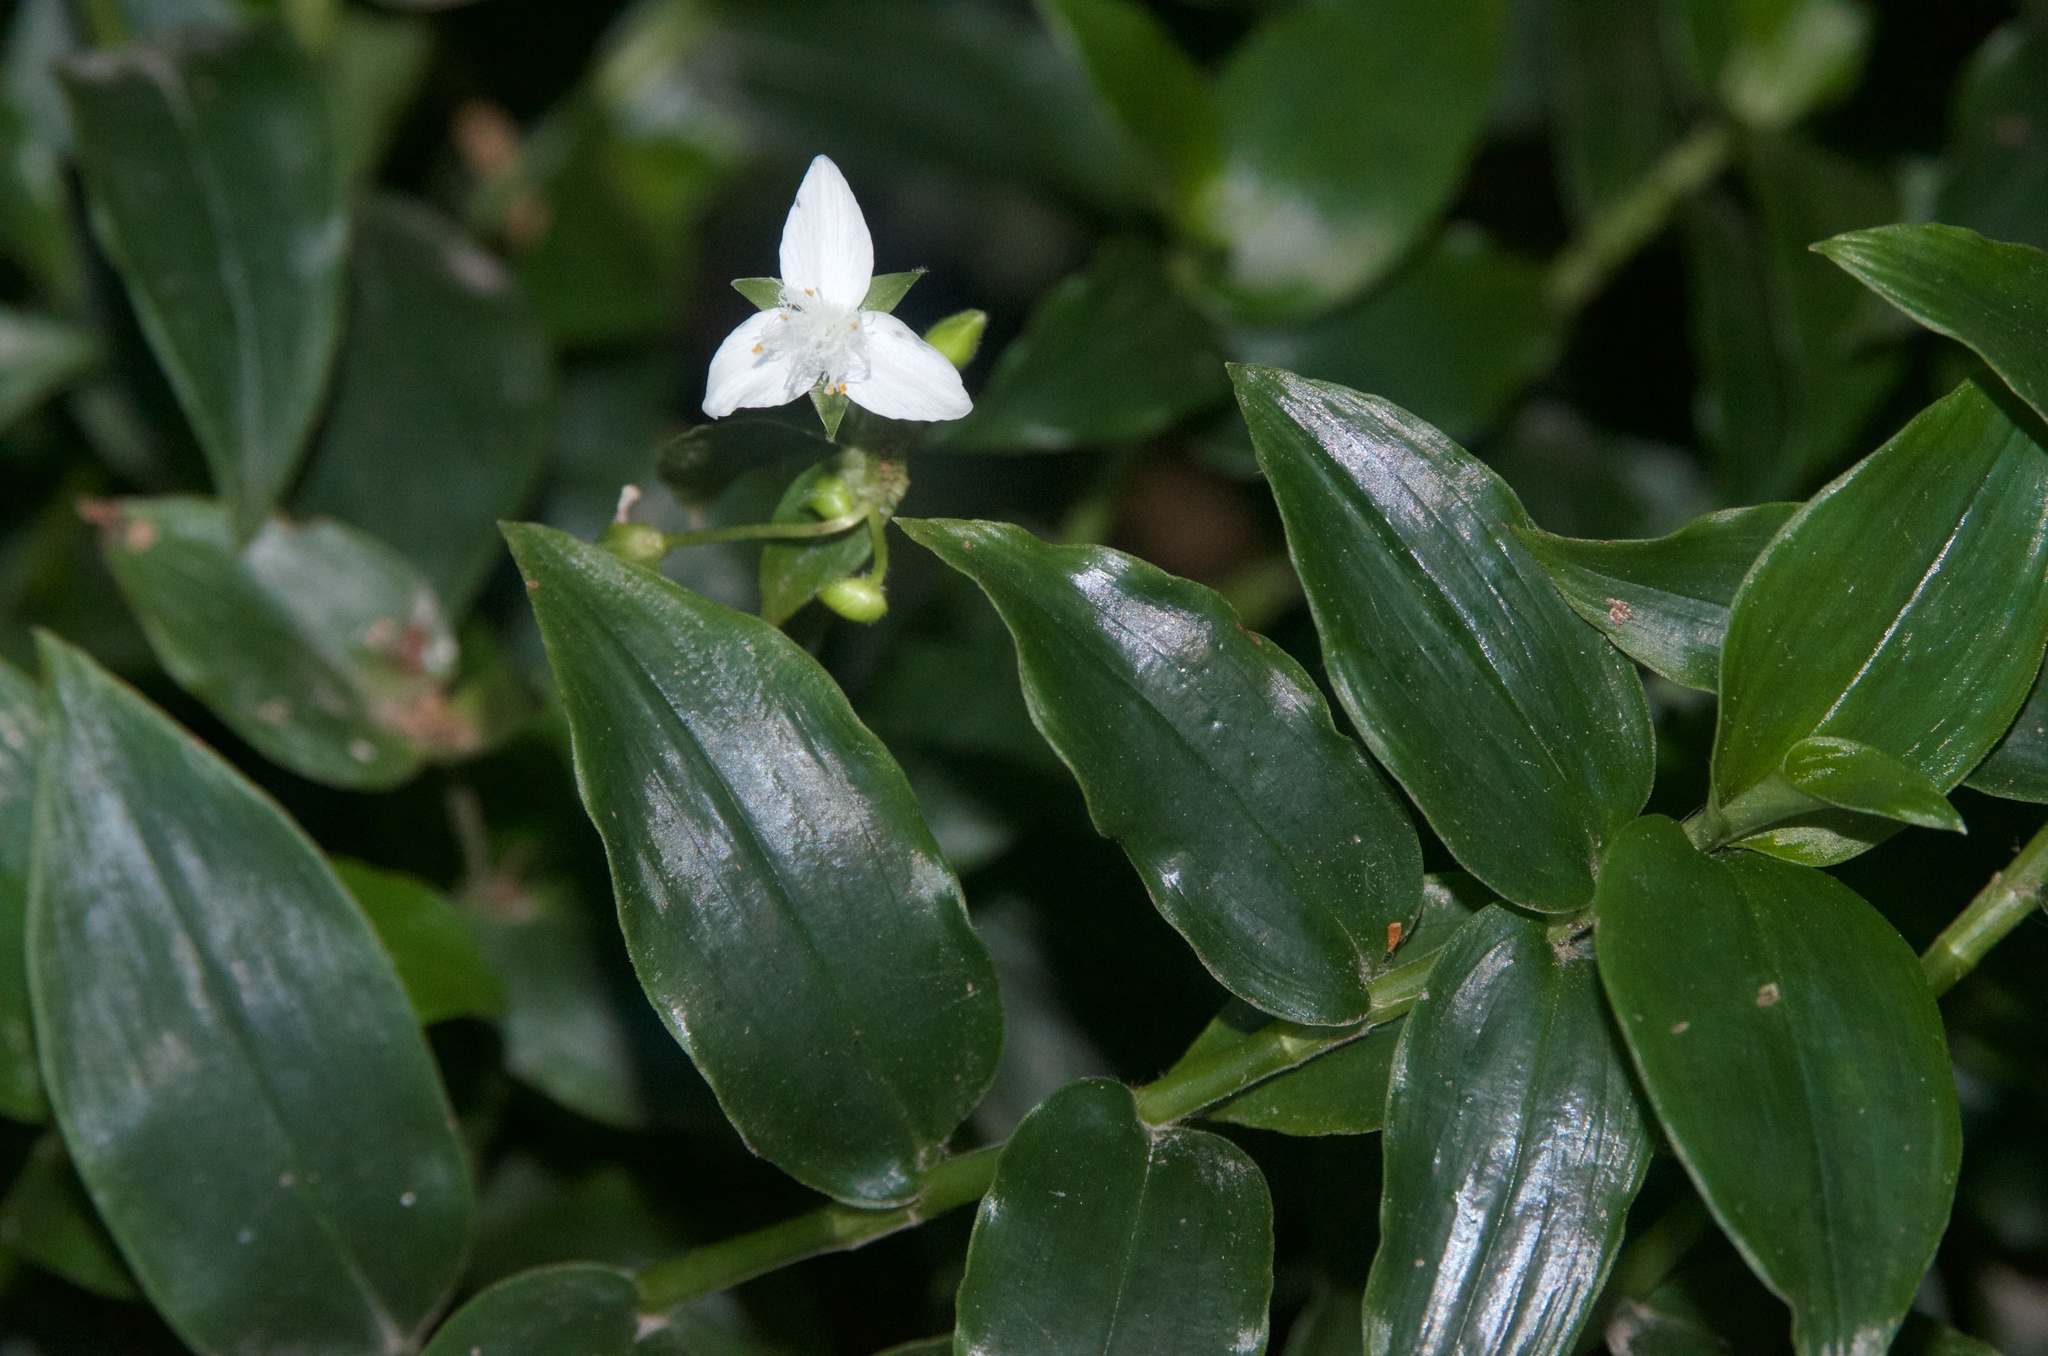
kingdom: Plantae
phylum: Tracheophyta
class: Liliopsida
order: Commelinales
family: Commelinaceae
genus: Tradescantia
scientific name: Tradescantia fluminensis
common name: Wandering-jew
